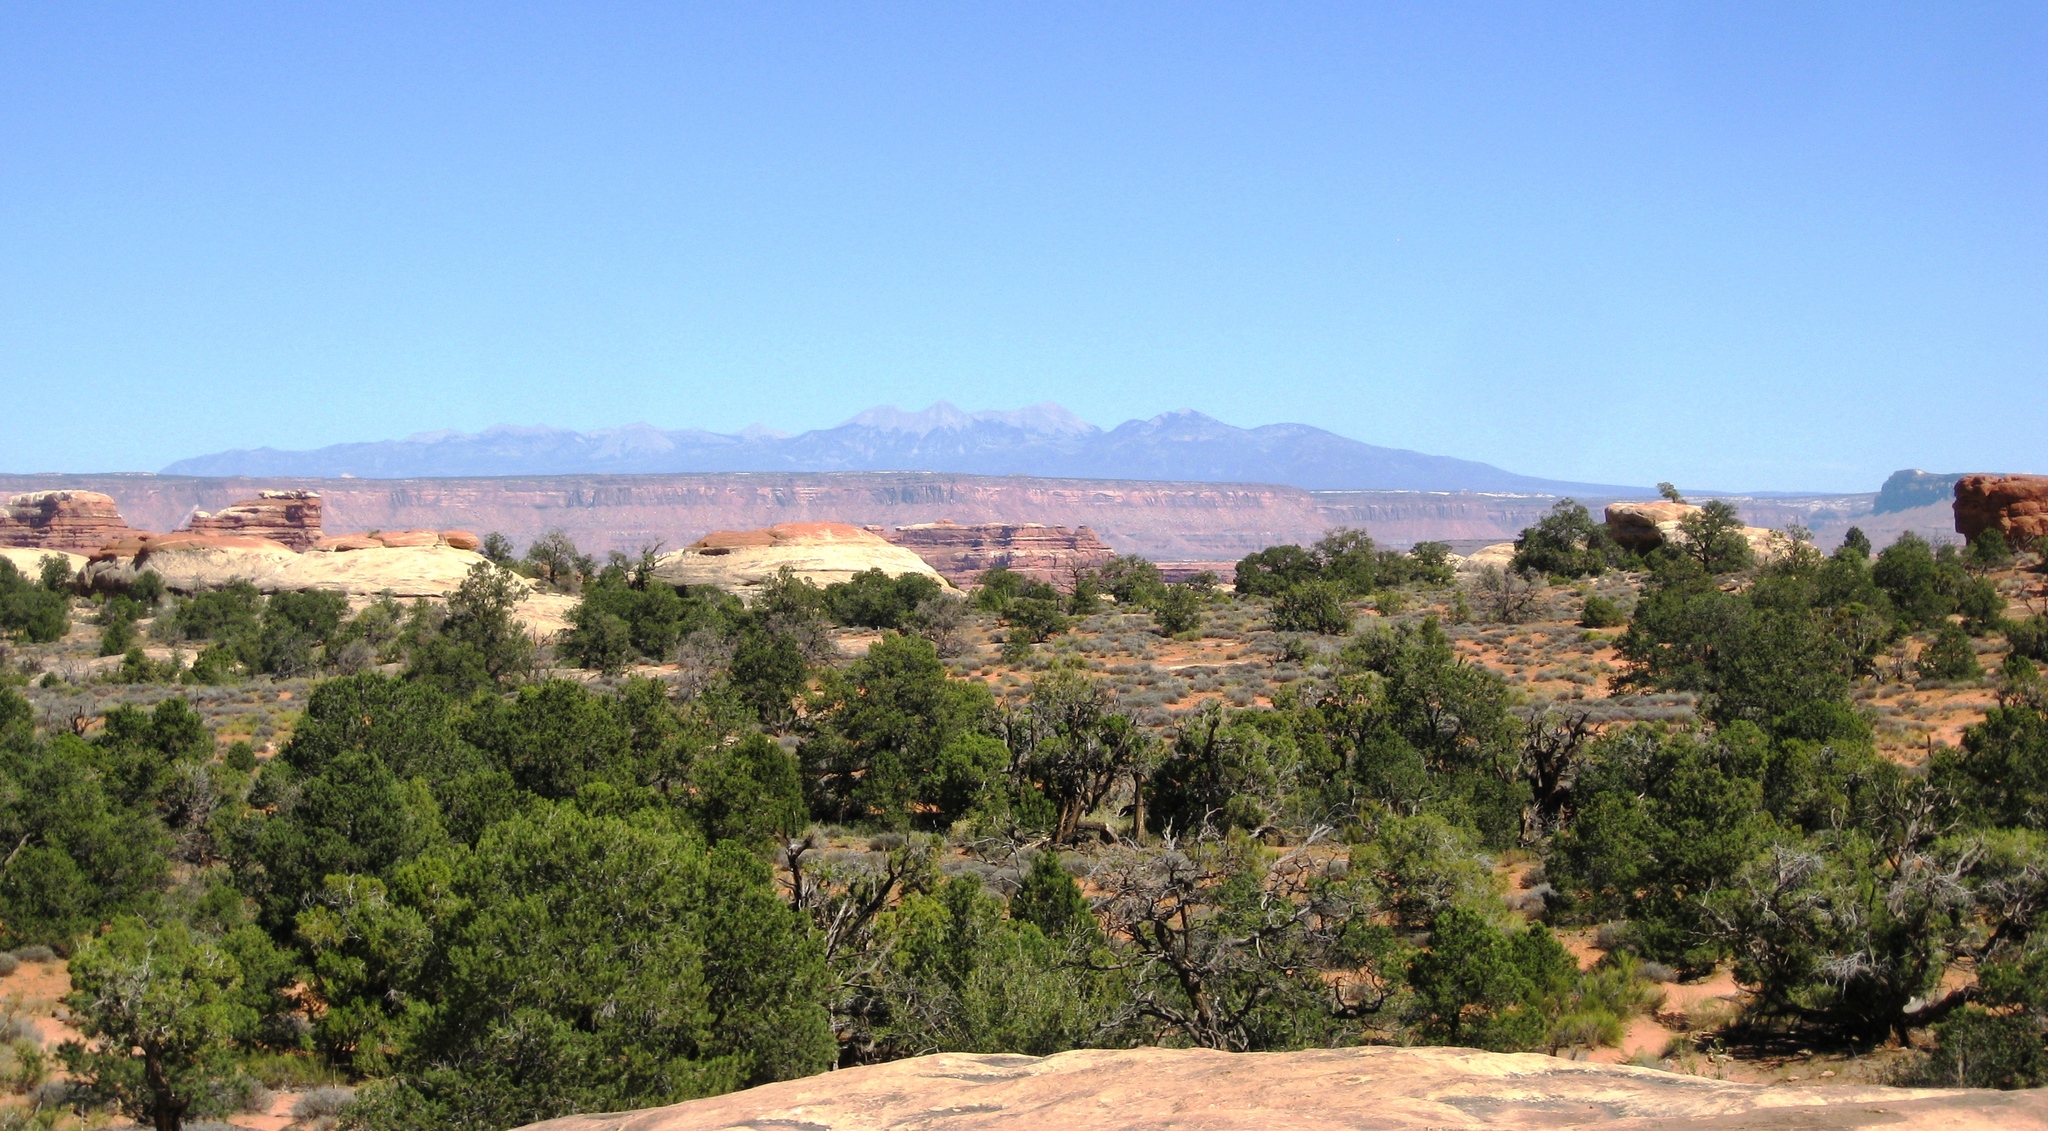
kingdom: Plantae
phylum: Tracheophyta
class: Pinopsida
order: Pinales
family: Cupressaceae
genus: Juniperus
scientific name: Juniperus osteosperma
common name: Utah juniper
